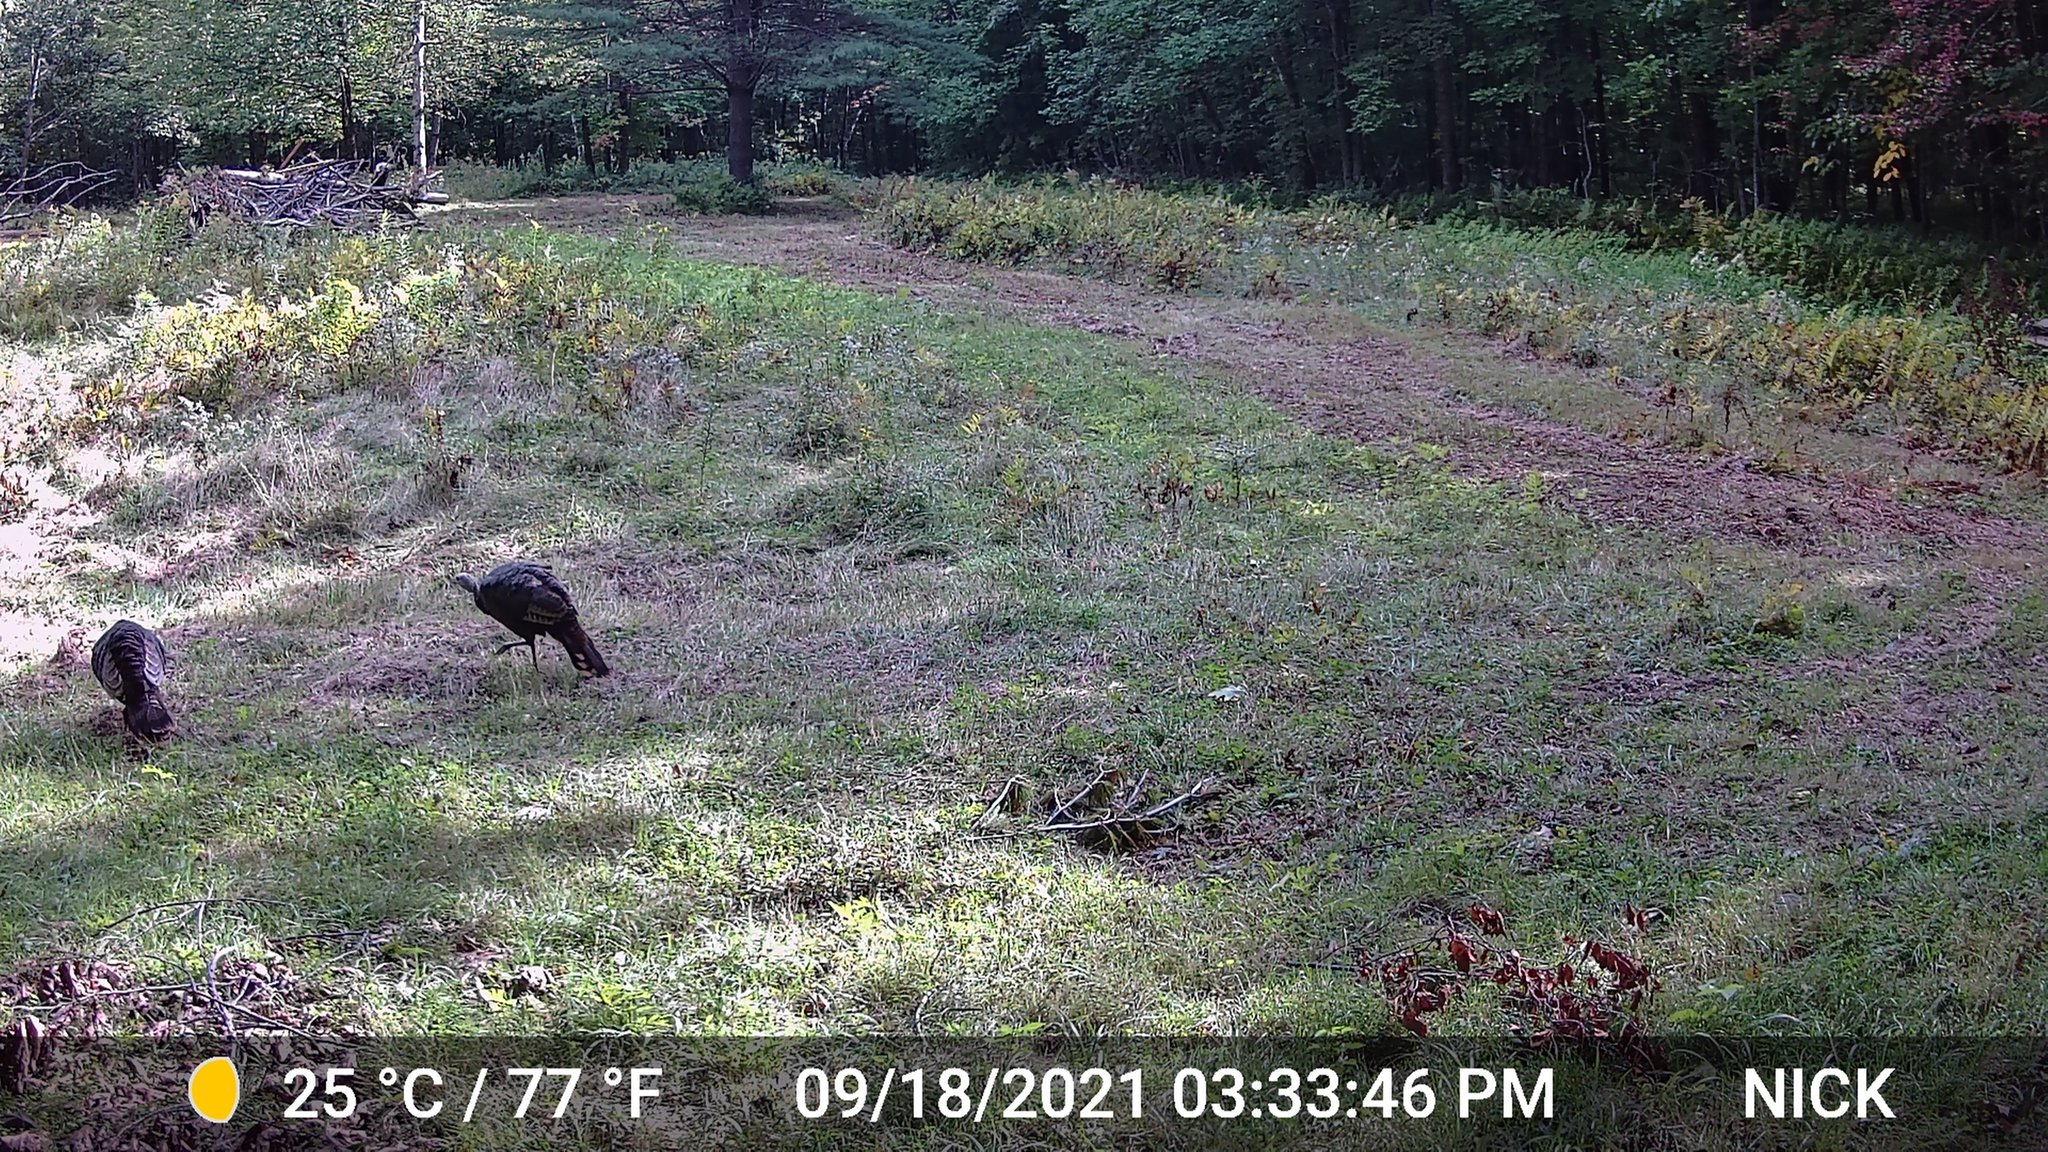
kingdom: Animalia
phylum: Chordata
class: Aves
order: Galliformes
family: Phasianidae
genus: Meleagris
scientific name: Meleagris gallopavo
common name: Wild turkey
